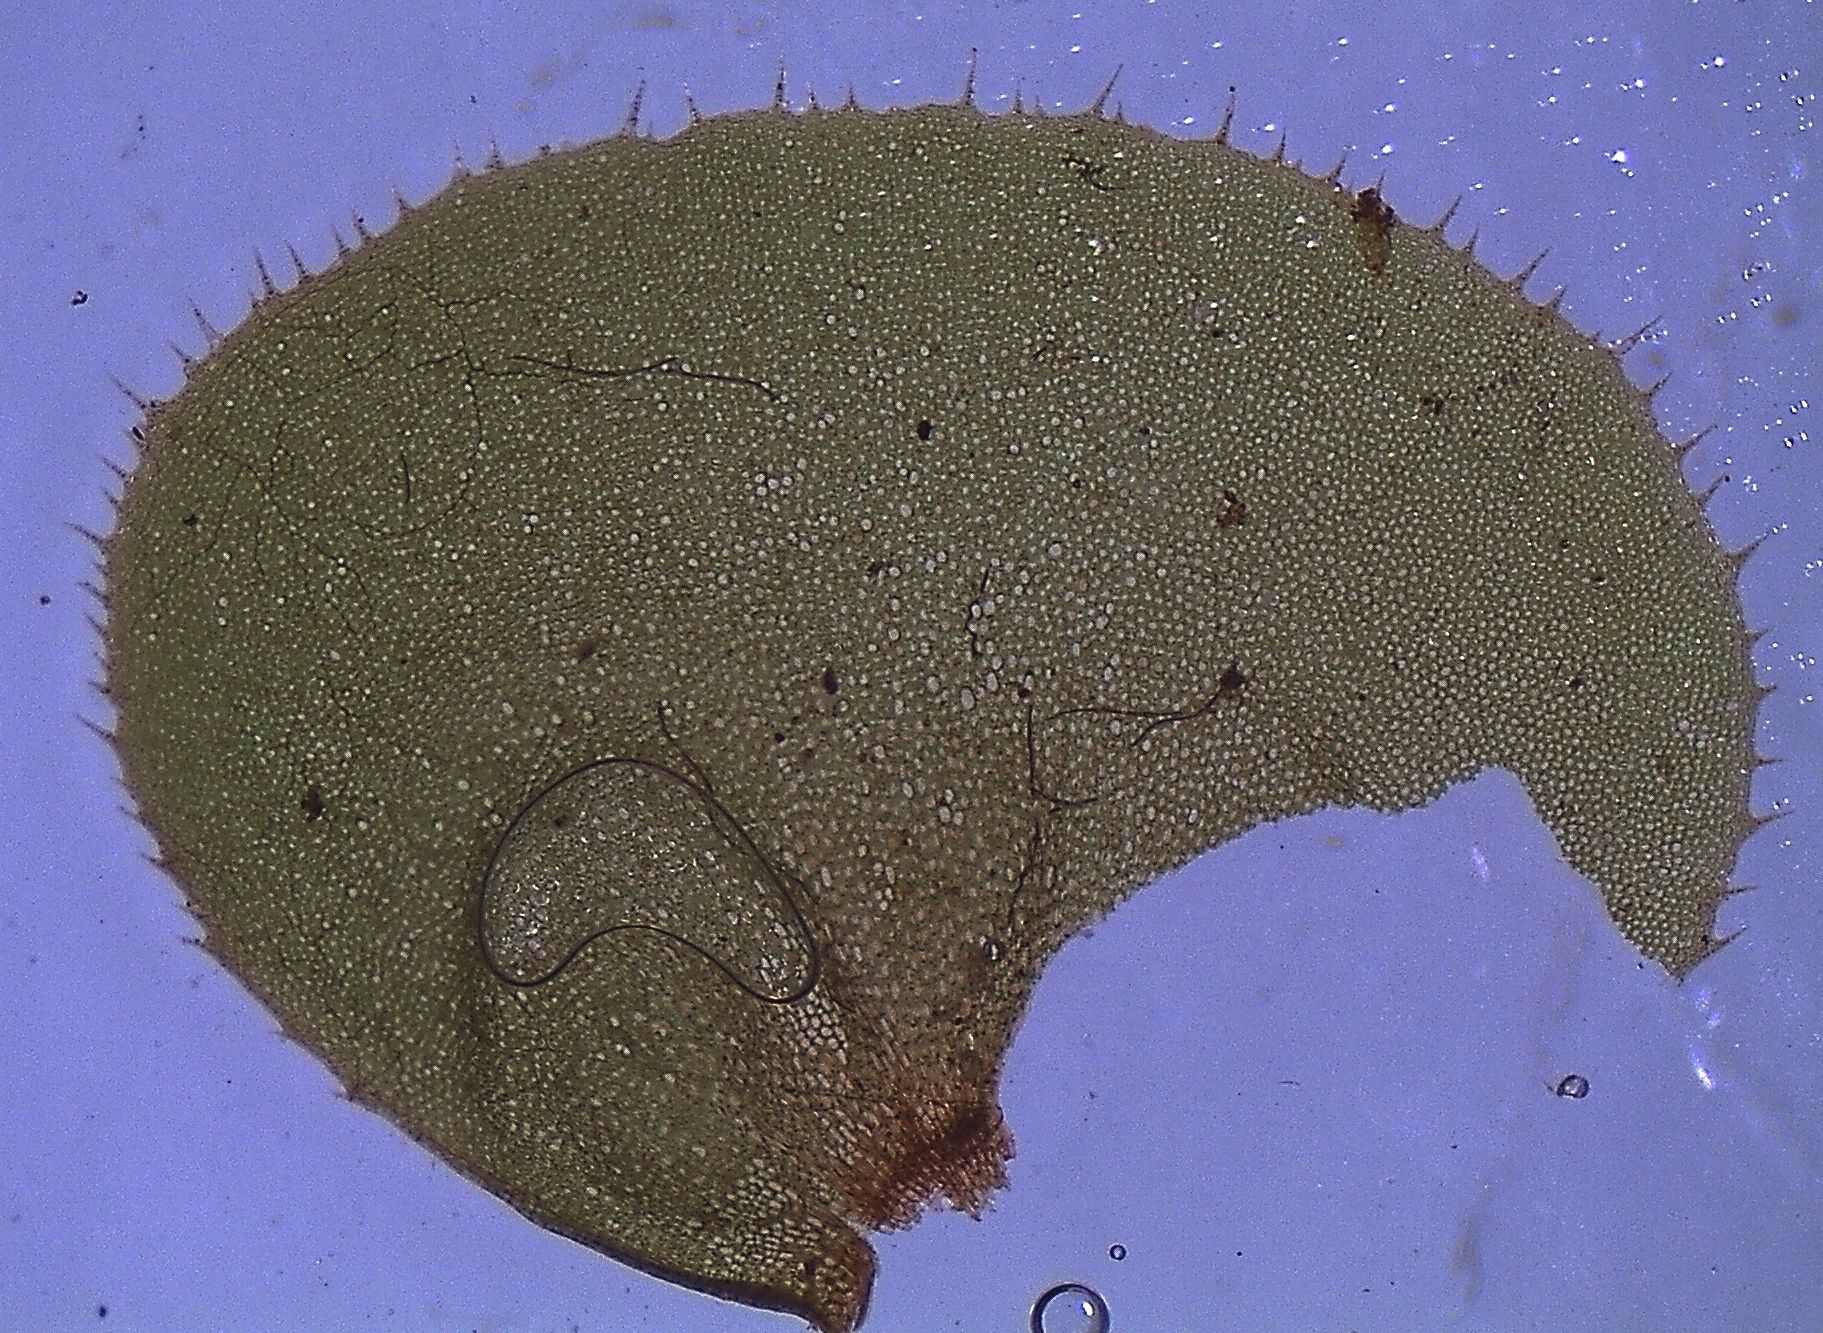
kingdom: Plantae
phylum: Marchantiophyta
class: Jungermanniopsida
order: Jungermanniales
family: Plagiochilaceae
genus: Plagiochila
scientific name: Plagiochila gigantea
